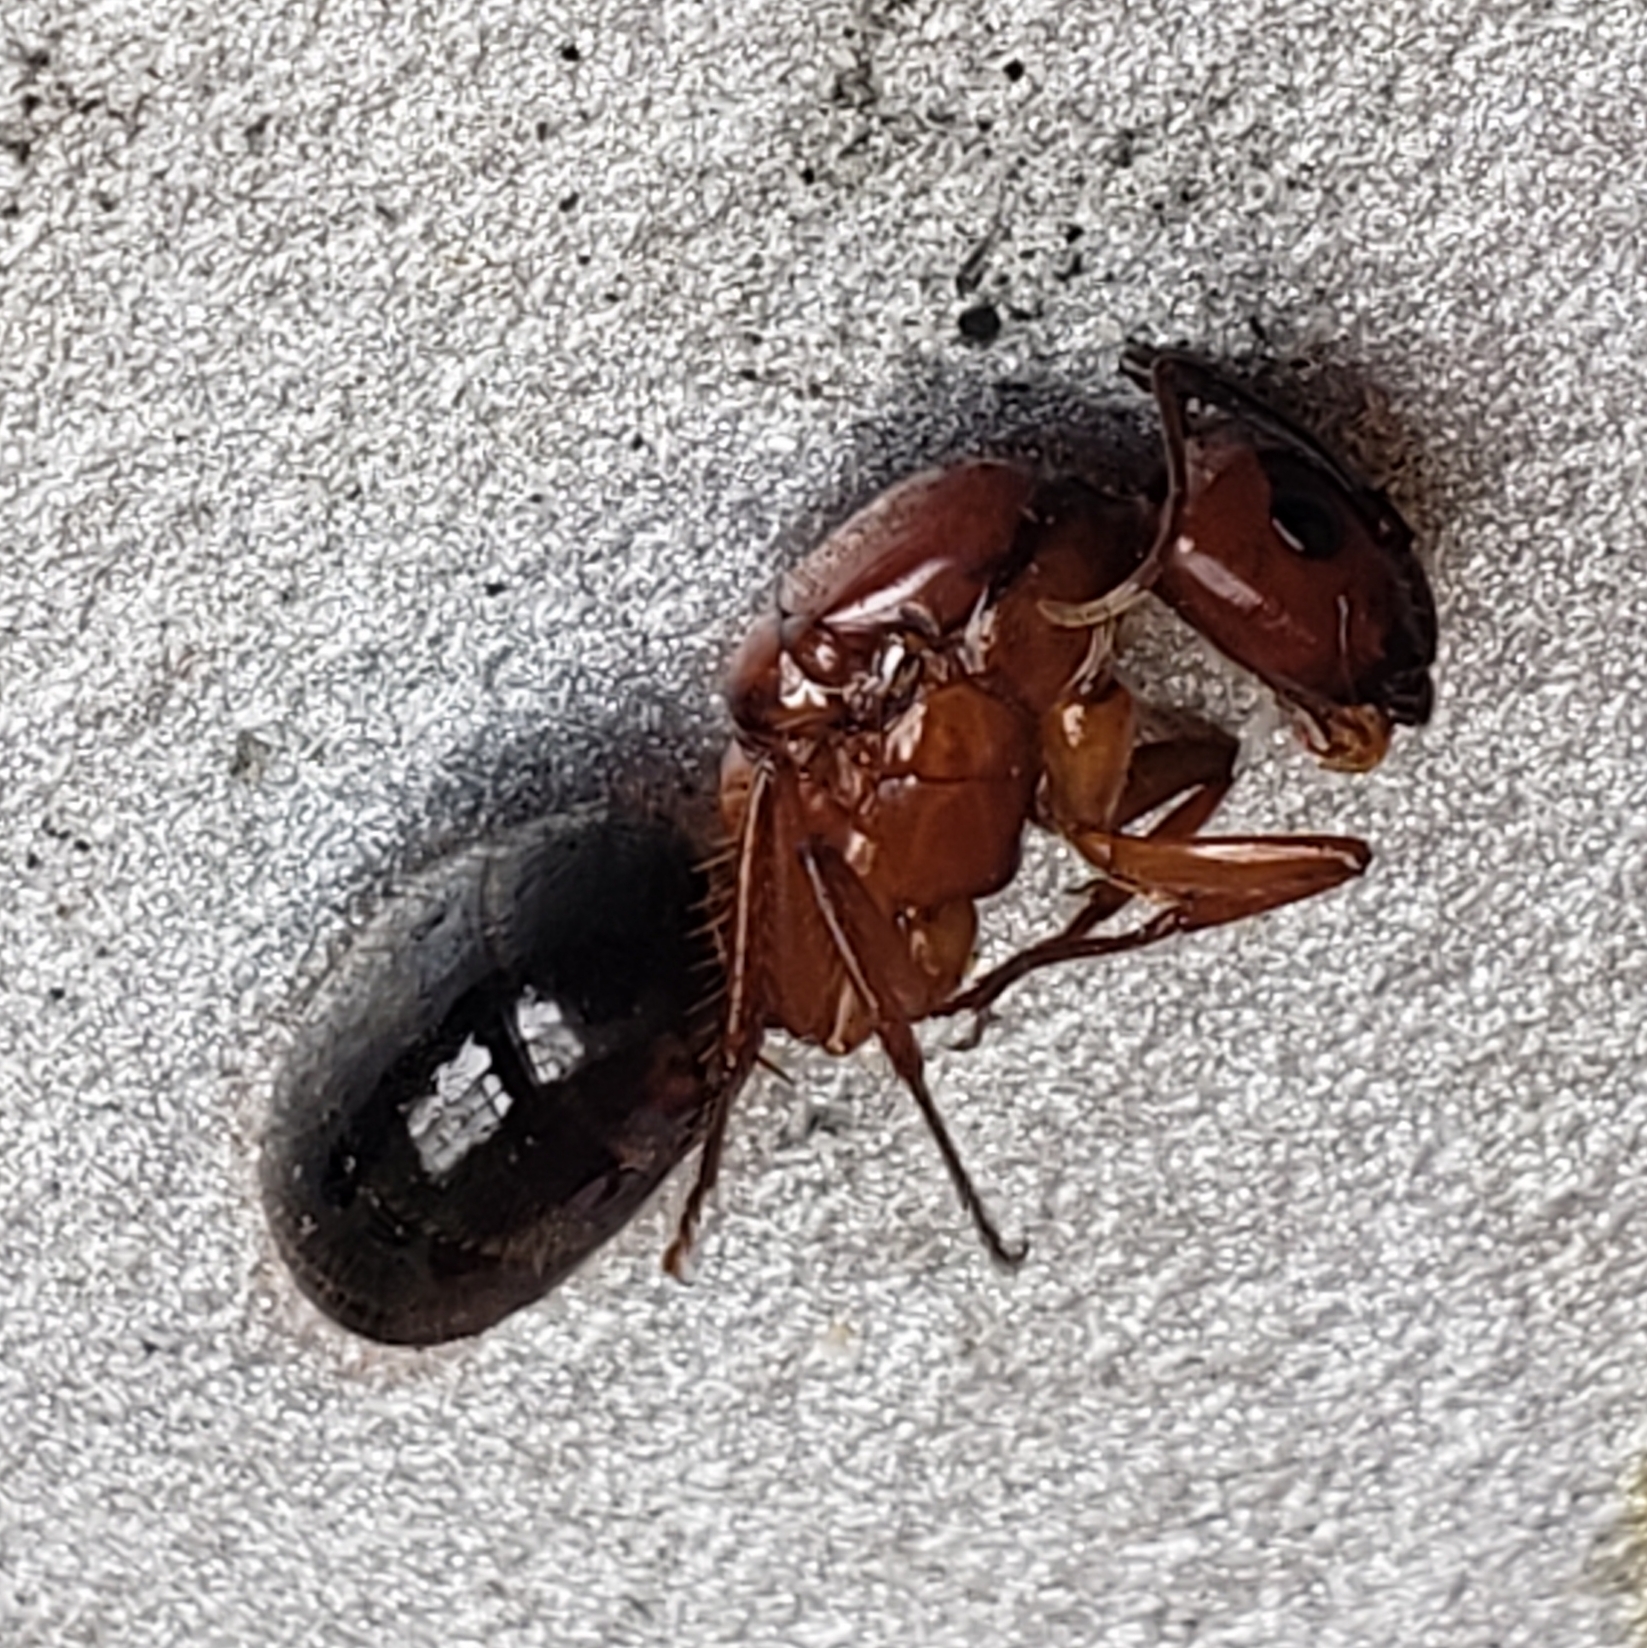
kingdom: Animalia
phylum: Arthropoda
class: Insecta
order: Hymenoptera
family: Formicidae
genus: Camponotus
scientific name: Camponotus floridanus
